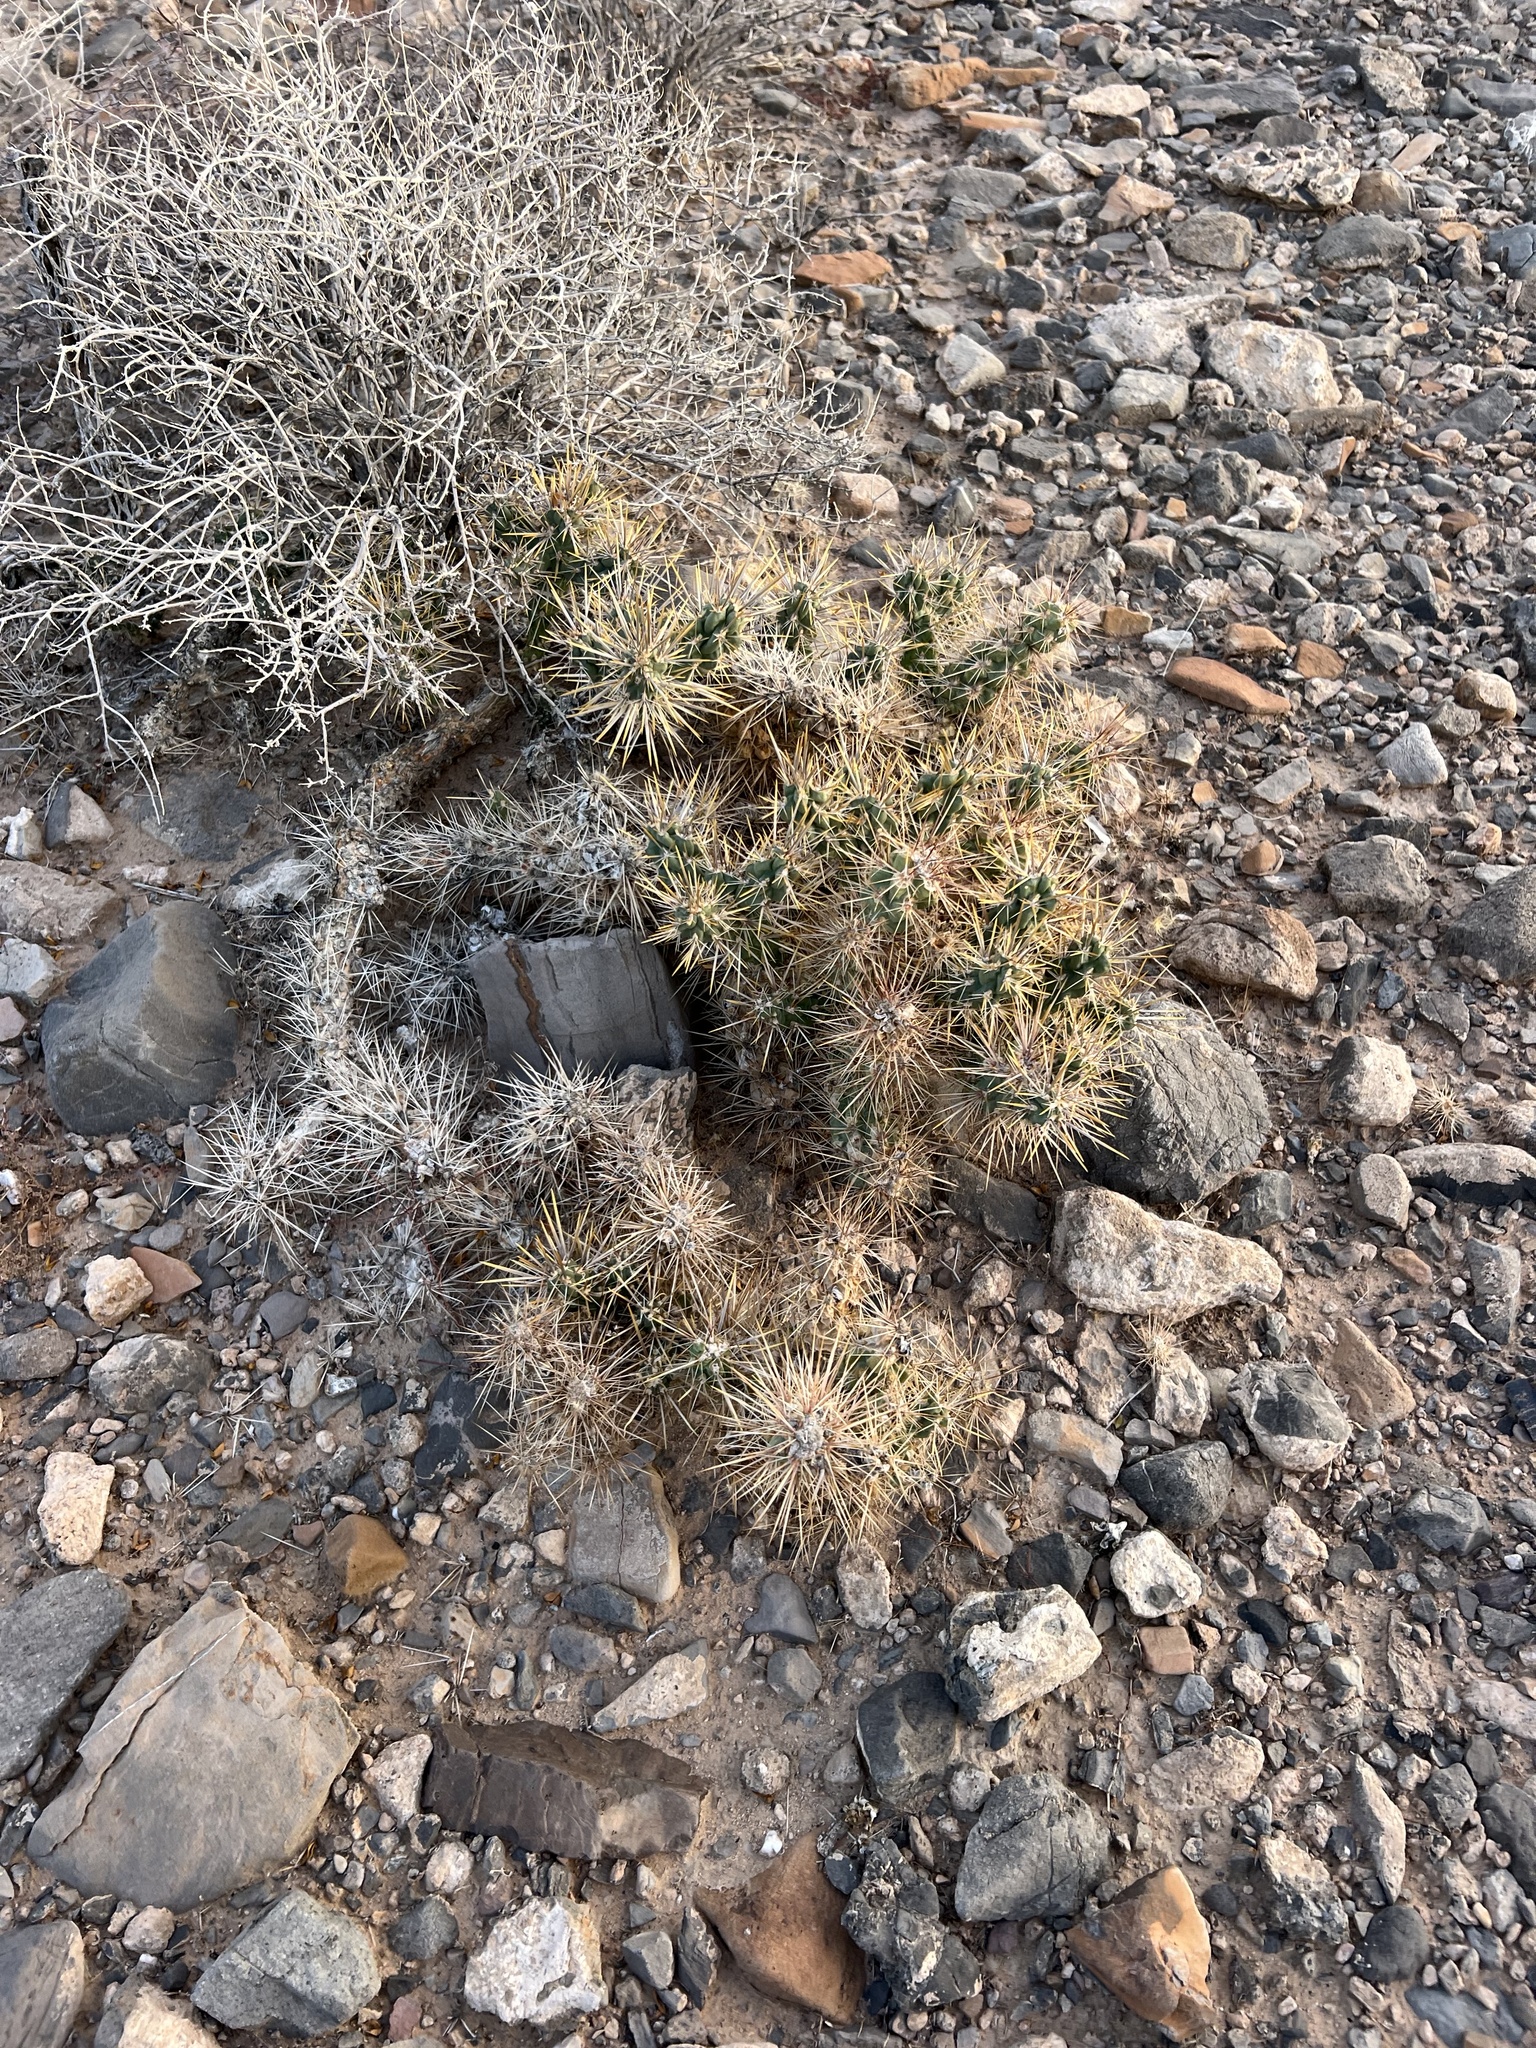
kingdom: Plantae
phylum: Tracheophyta
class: Magnoliopsida
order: Caryophyllales
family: Cactaceae
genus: Cylindropuntia
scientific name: Cylindropuntia echinocarpa
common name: Ground cholla
